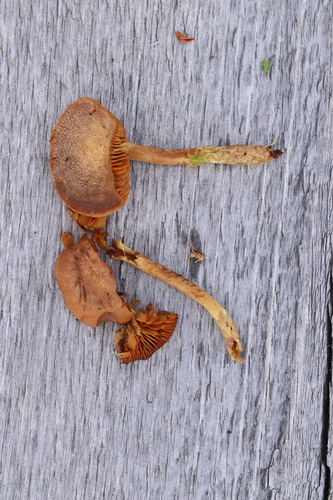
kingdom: Fungi
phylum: Basidiomycota
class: Agaricomycetes
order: Agaricales
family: Cortinariaceae
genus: Cortinarius
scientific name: Cortinarius chrysolitus
